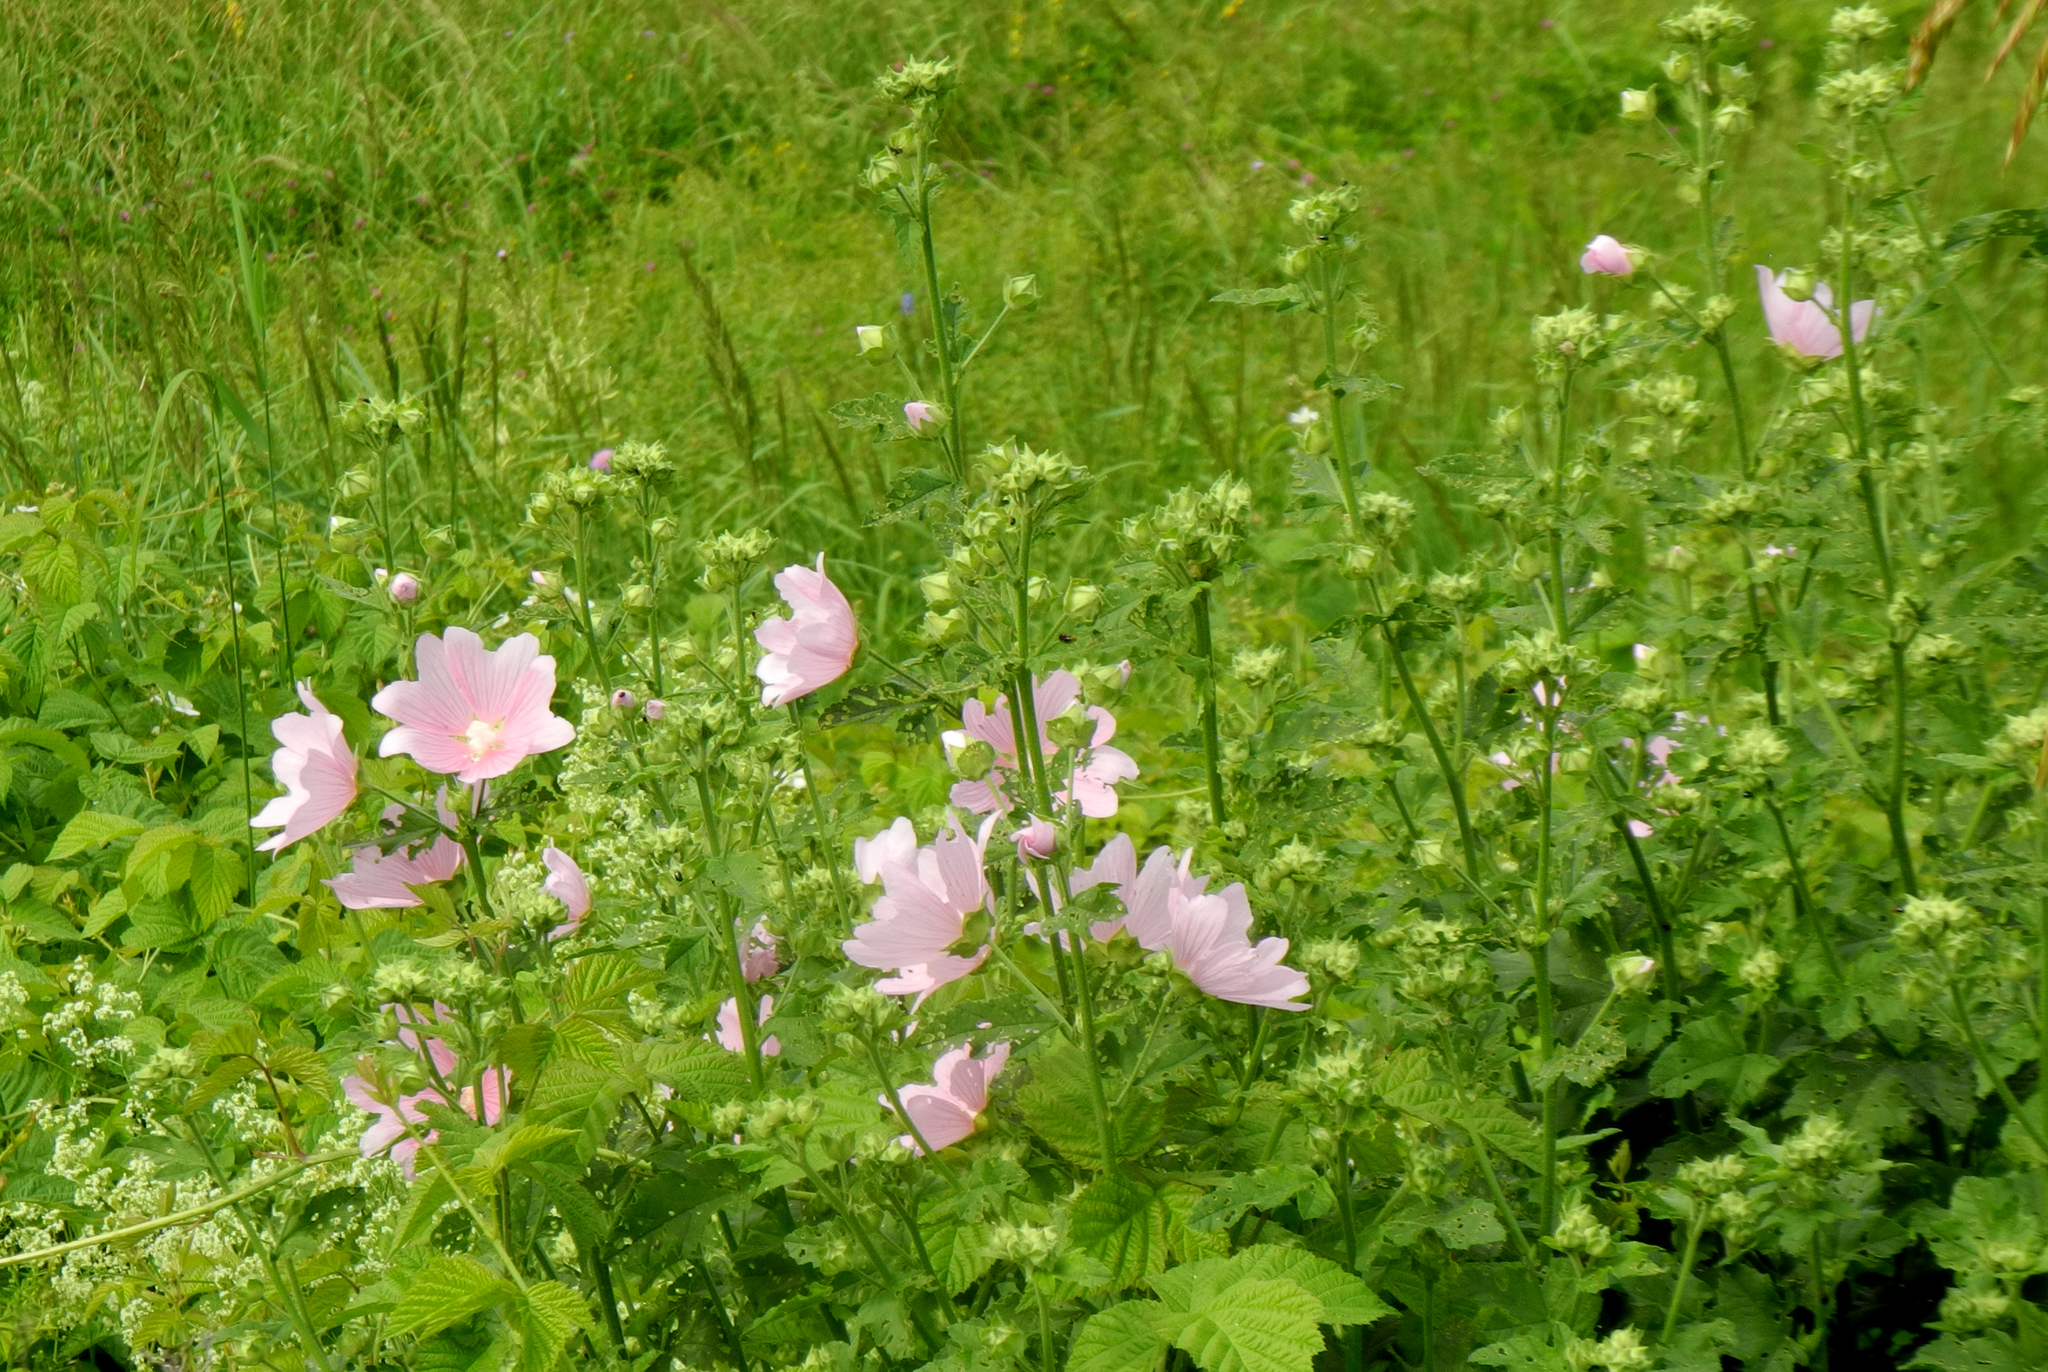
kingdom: Plantae
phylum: Tracheophyta
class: Magnoliopsida
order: Malvales
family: Malvaceae
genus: Malva
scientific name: Malva thuringiaca
